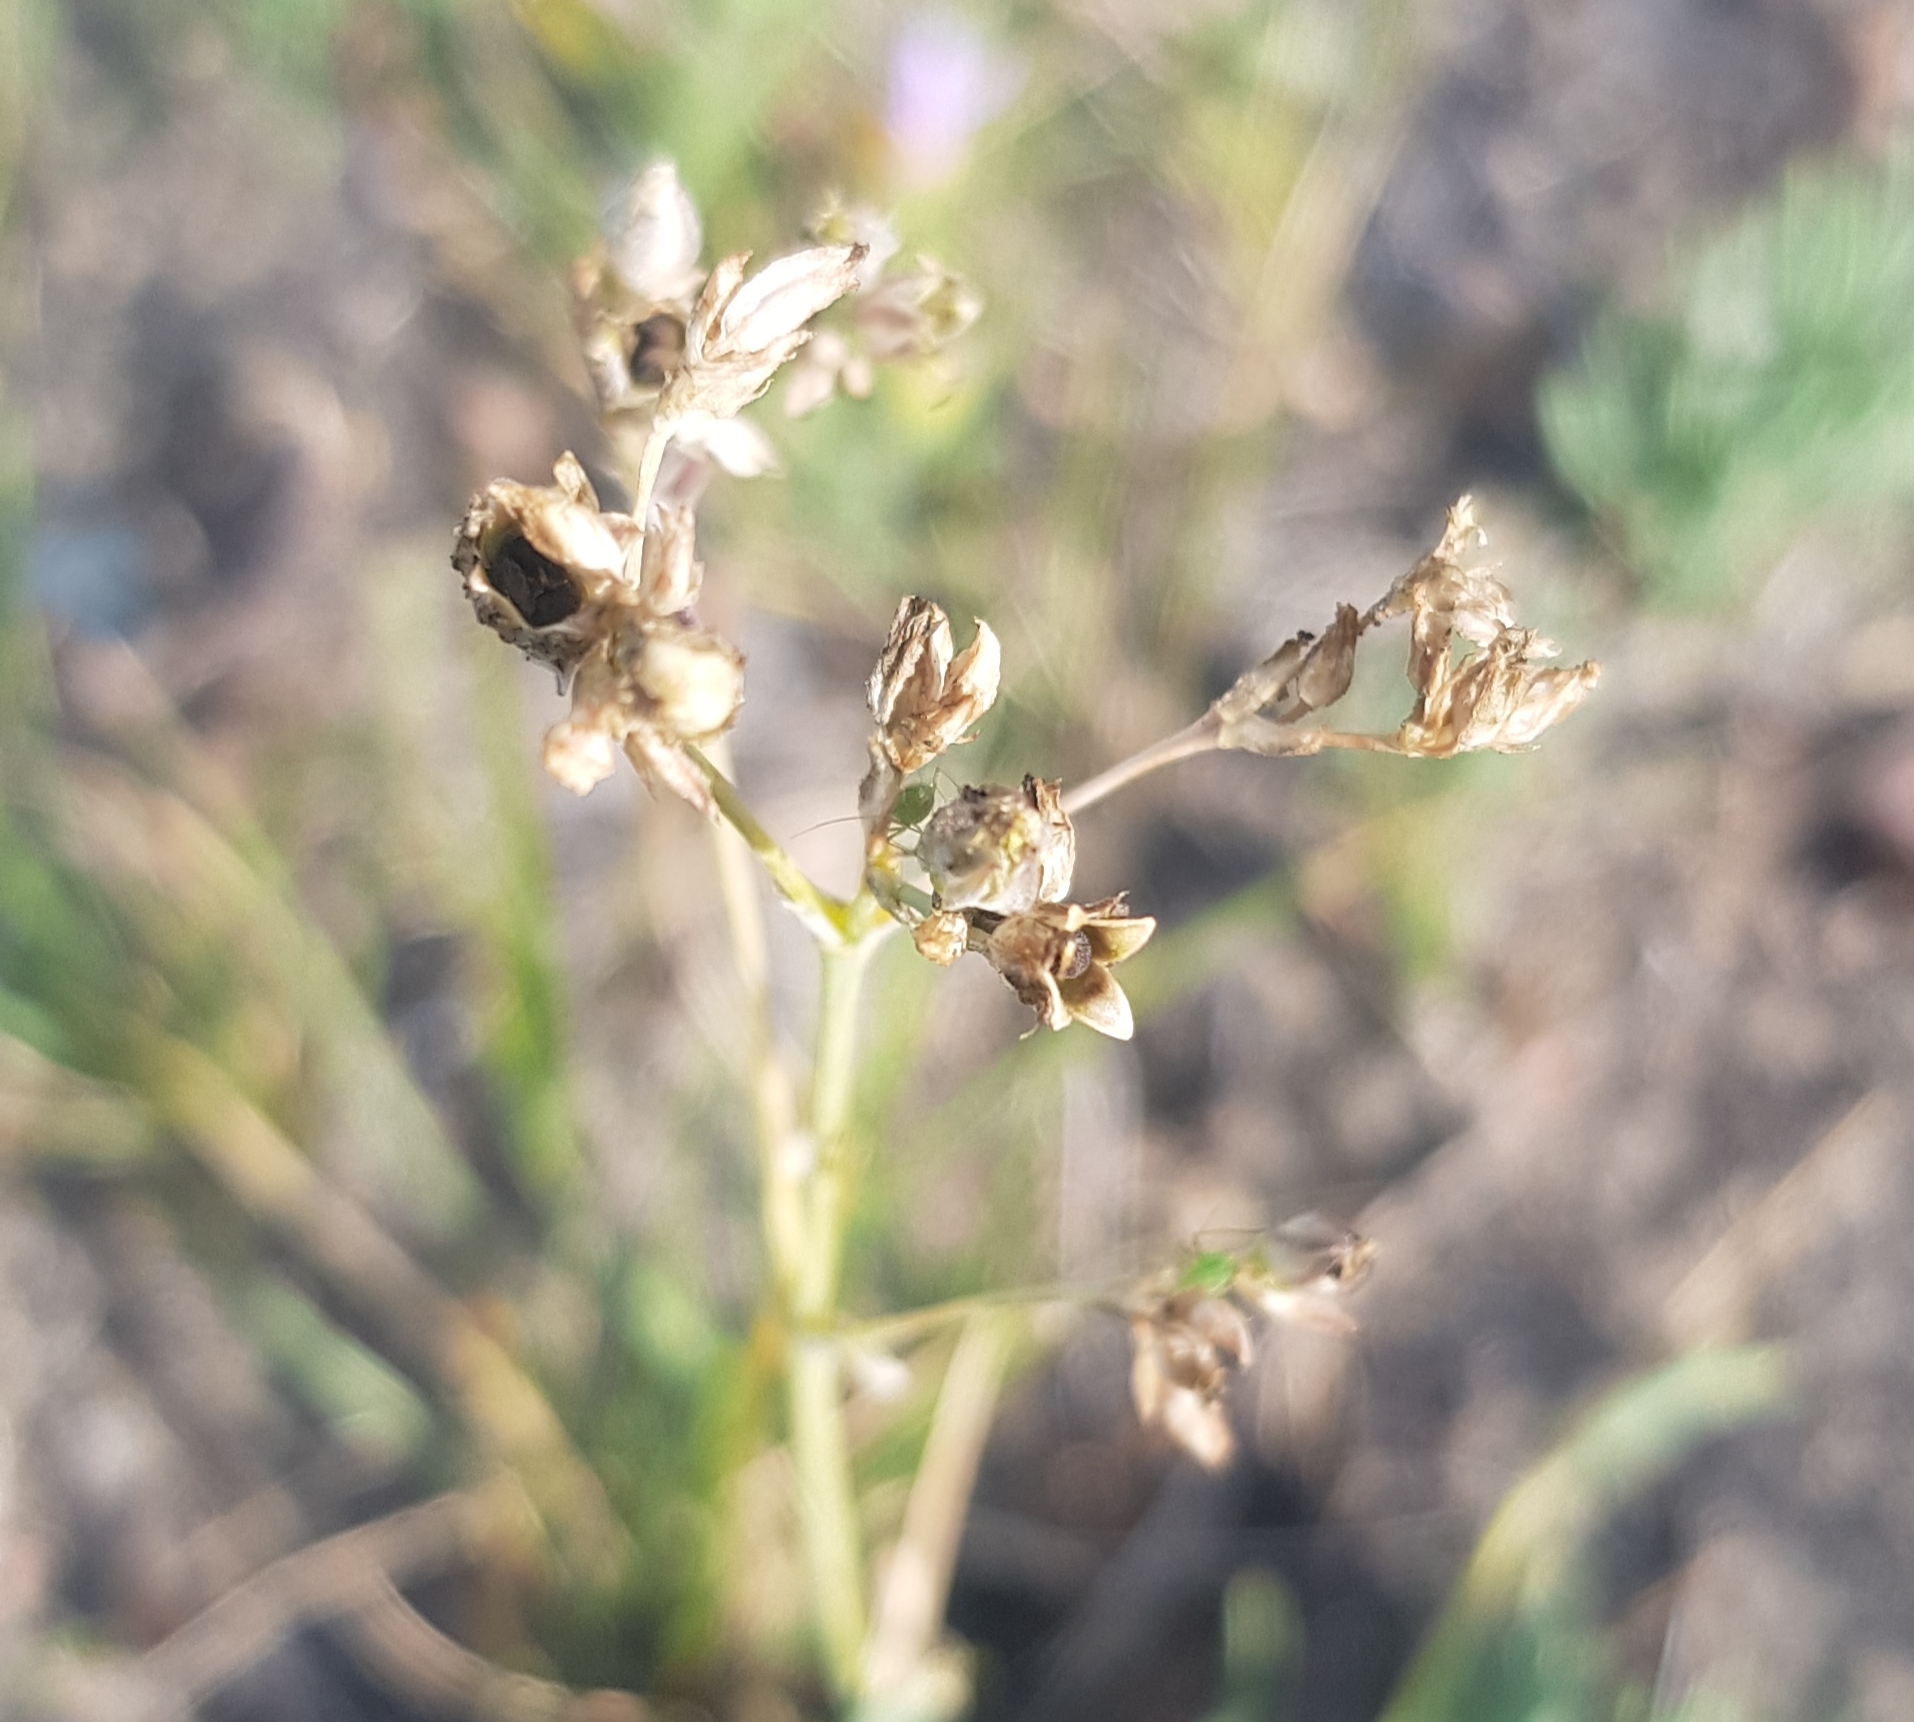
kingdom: Plantae
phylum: Tracheophyta
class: Magnoliopsida
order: Caryophyllales
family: Caryophyllaceae
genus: Gypsophila
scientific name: Gypsophila patrinii
